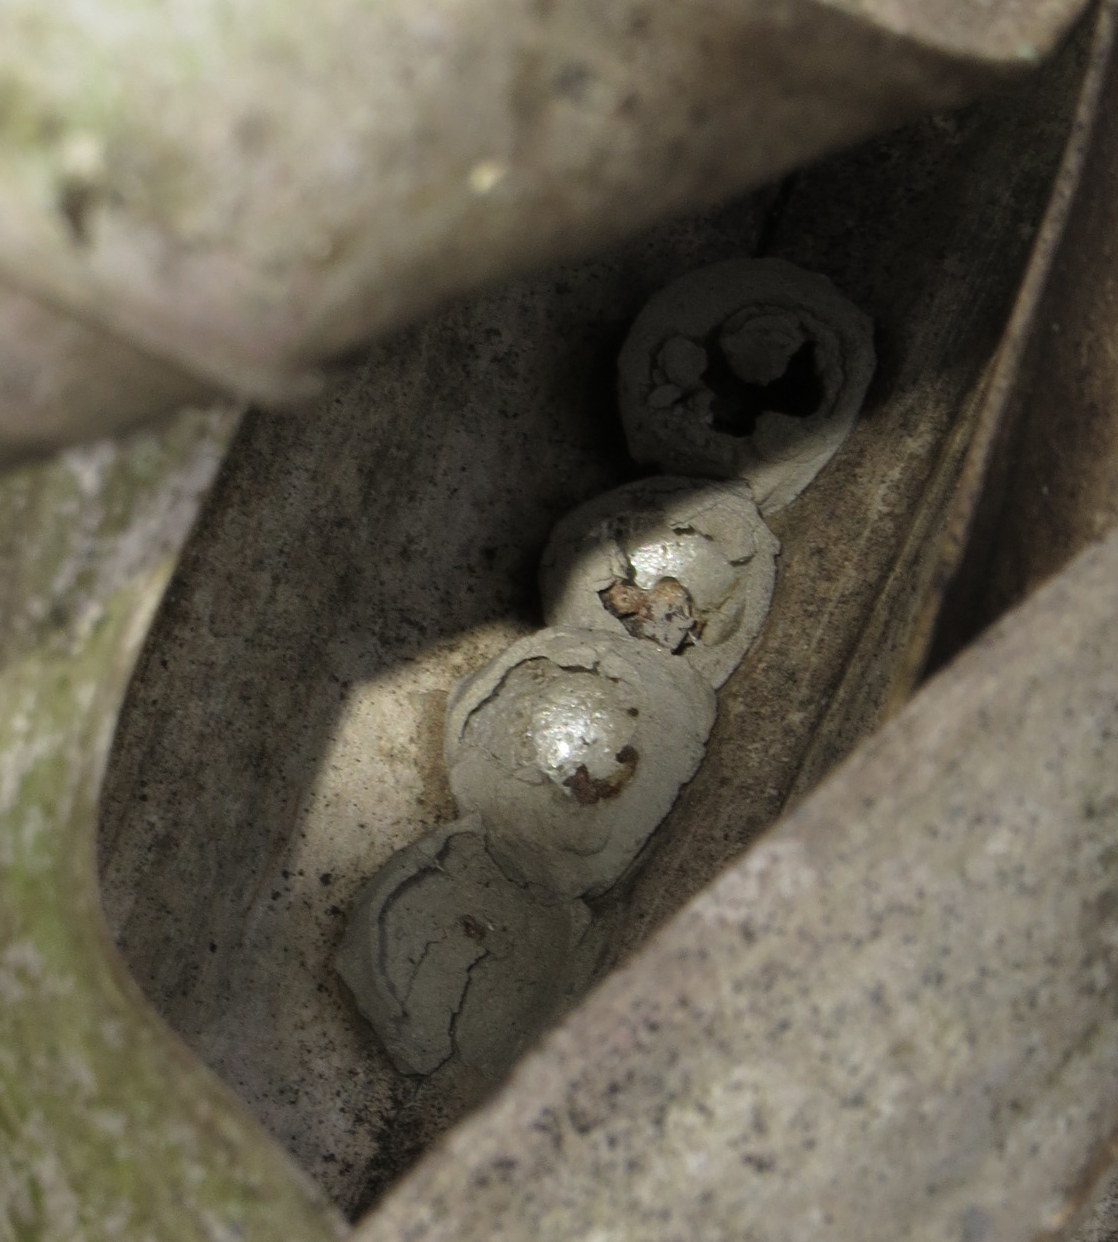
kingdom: Animalia
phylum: Arthropoda
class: Insecta
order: Hymenoptera
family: Vespidae
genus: Eumenes
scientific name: Eumenes
